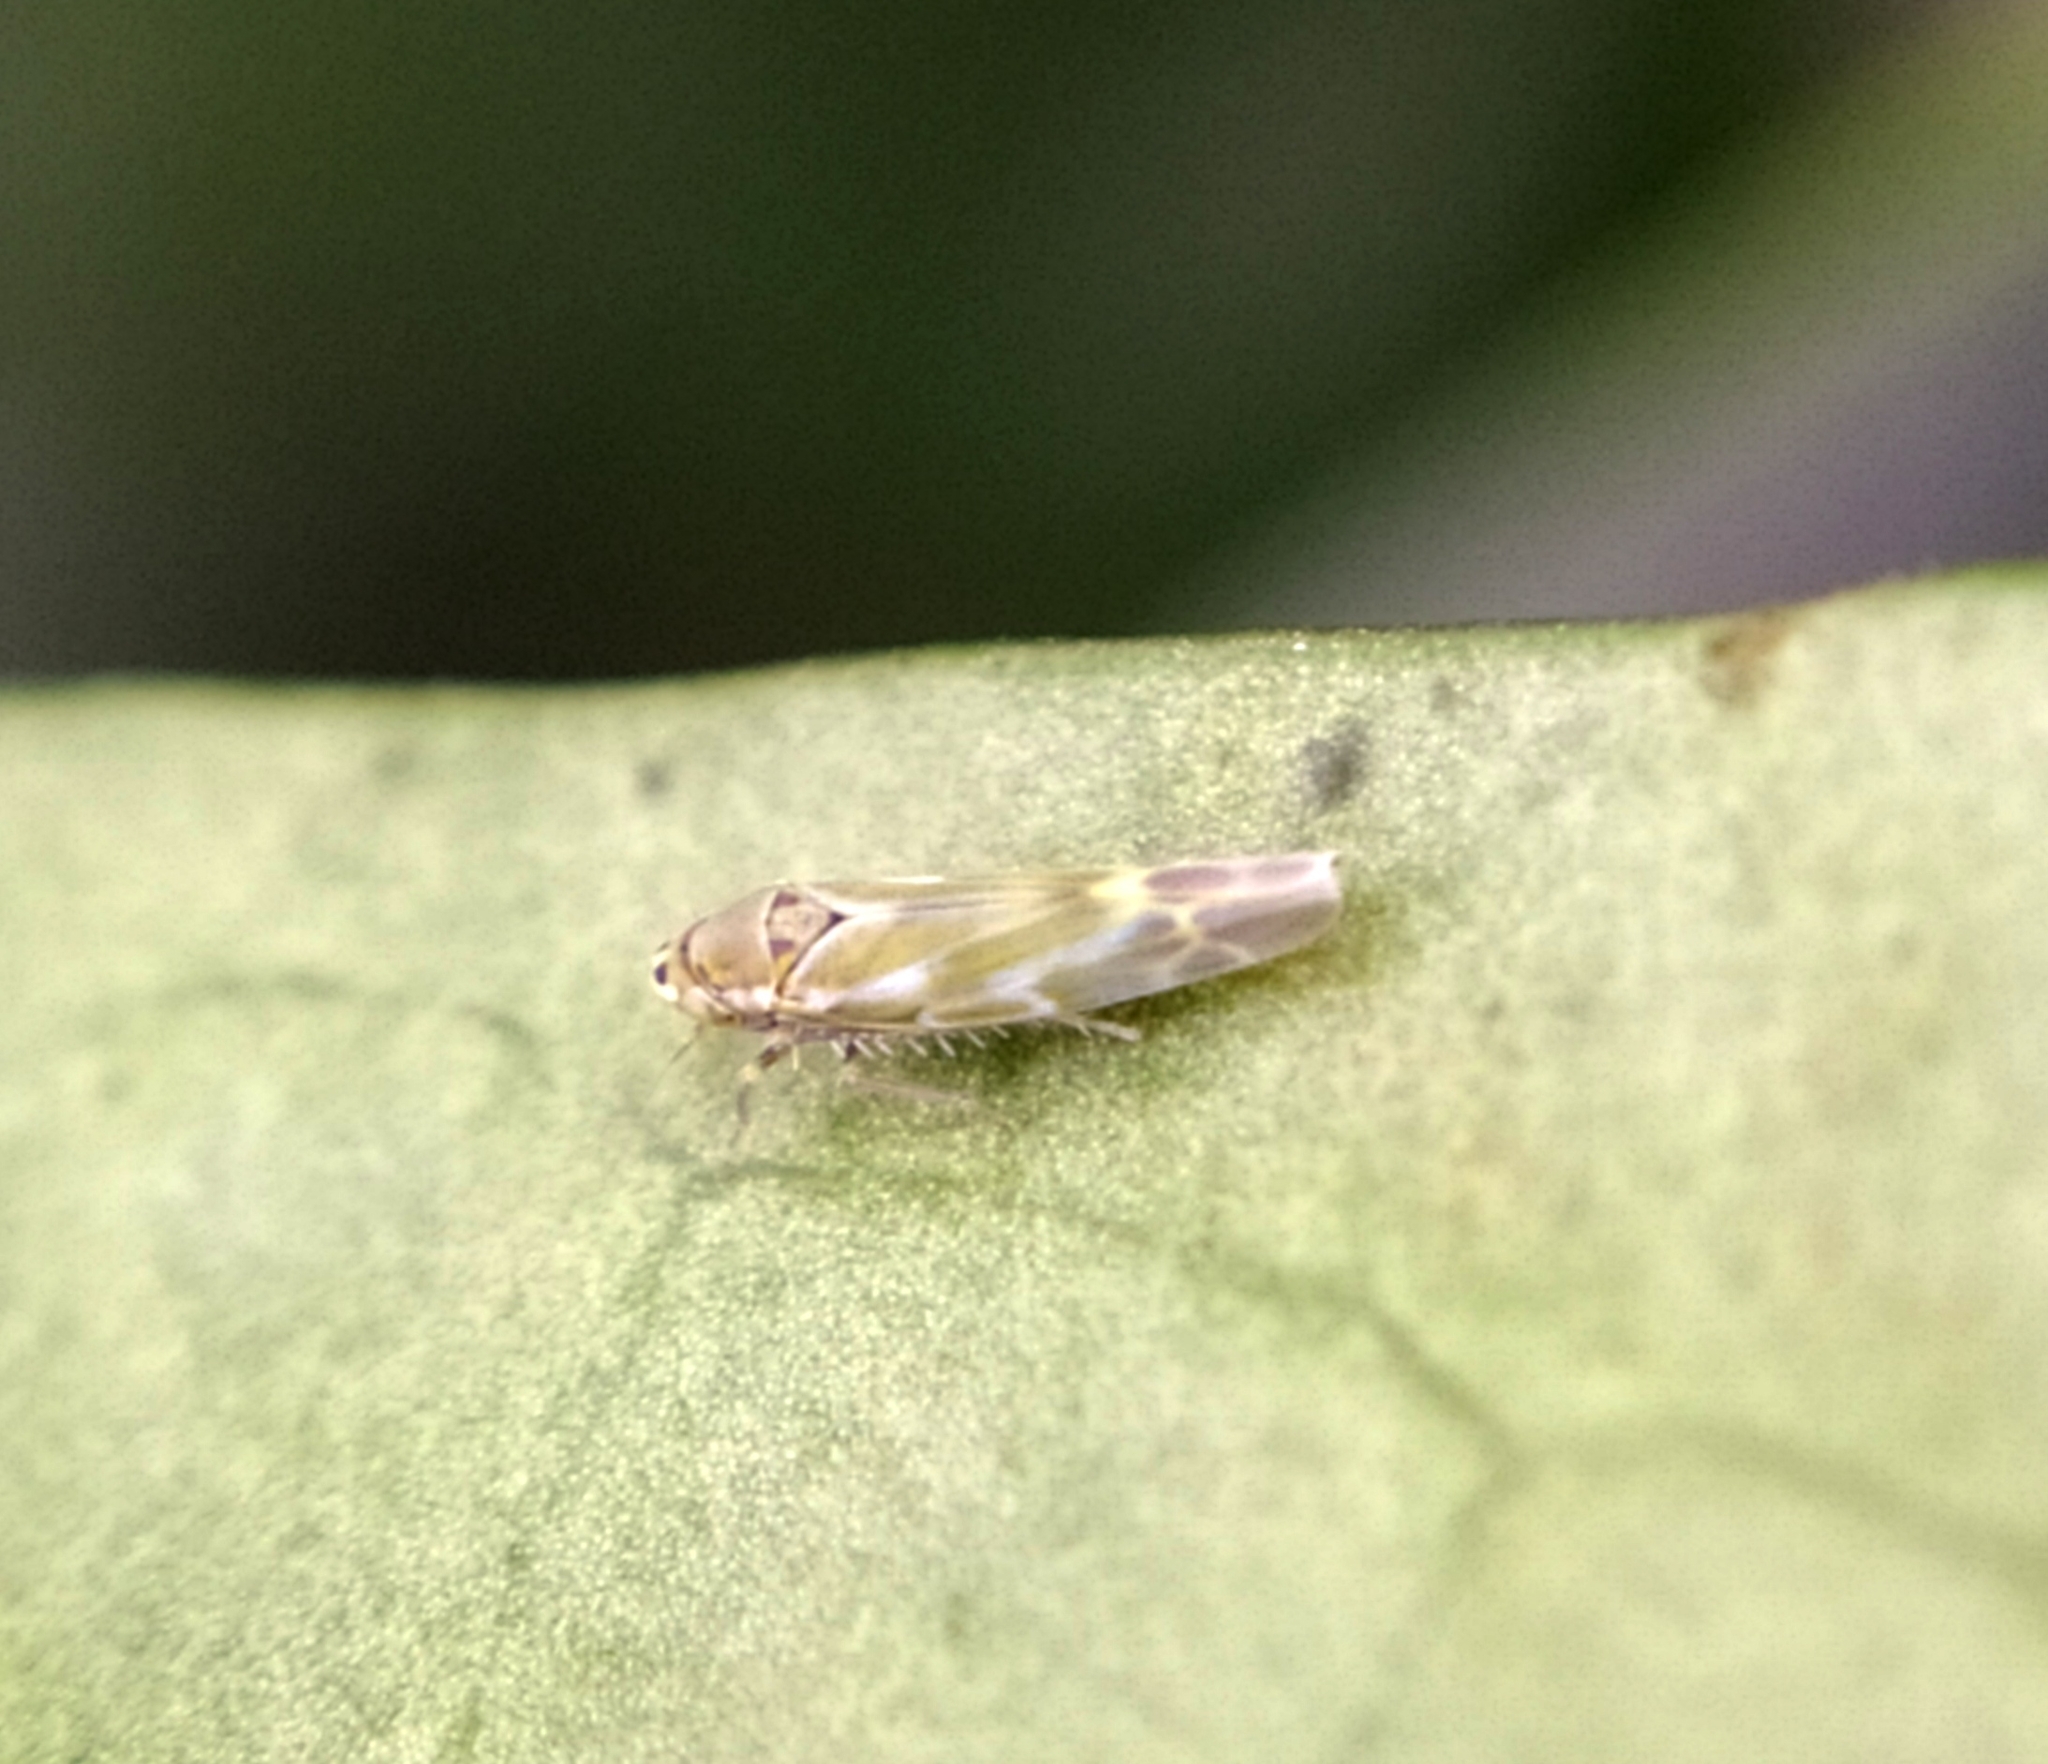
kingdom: Animalia
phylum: Arthropoda
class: Insecta
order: Hemiptera
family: Cicadellidae
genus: Frutioidia
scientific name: Frutioidia bisignata
